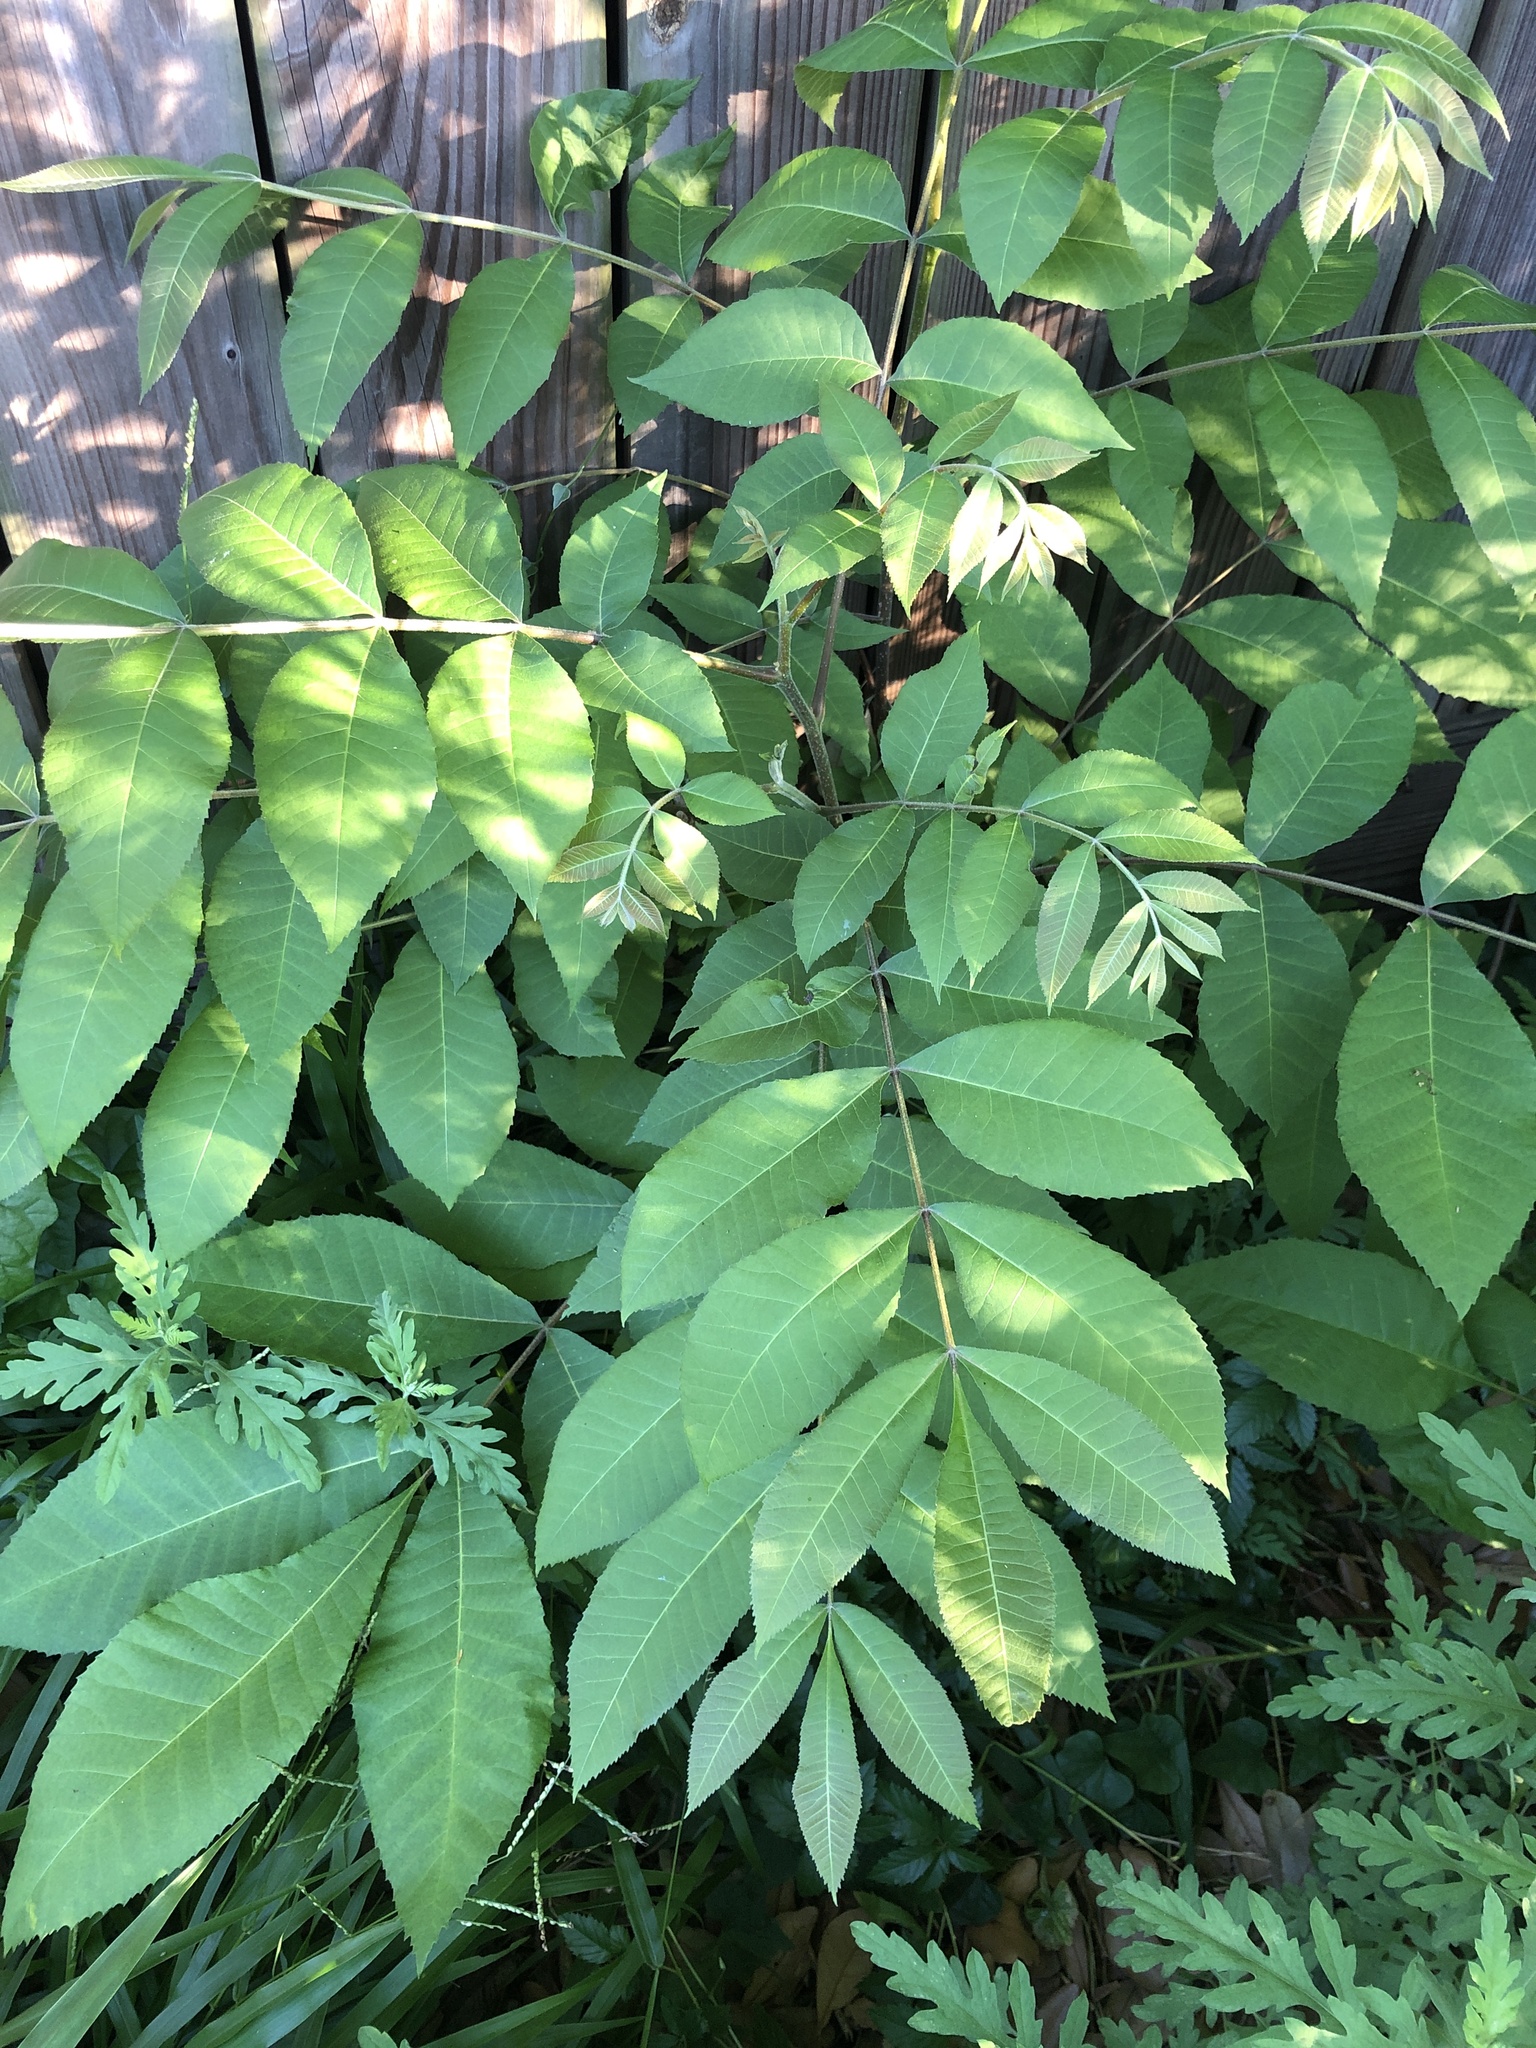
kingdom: Plantae
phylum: Tracheophyta
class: Magnoliopsida
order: Fagales
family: Juglandaceae
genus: Carya
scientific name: Carya illinoinensis
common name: Pecan
